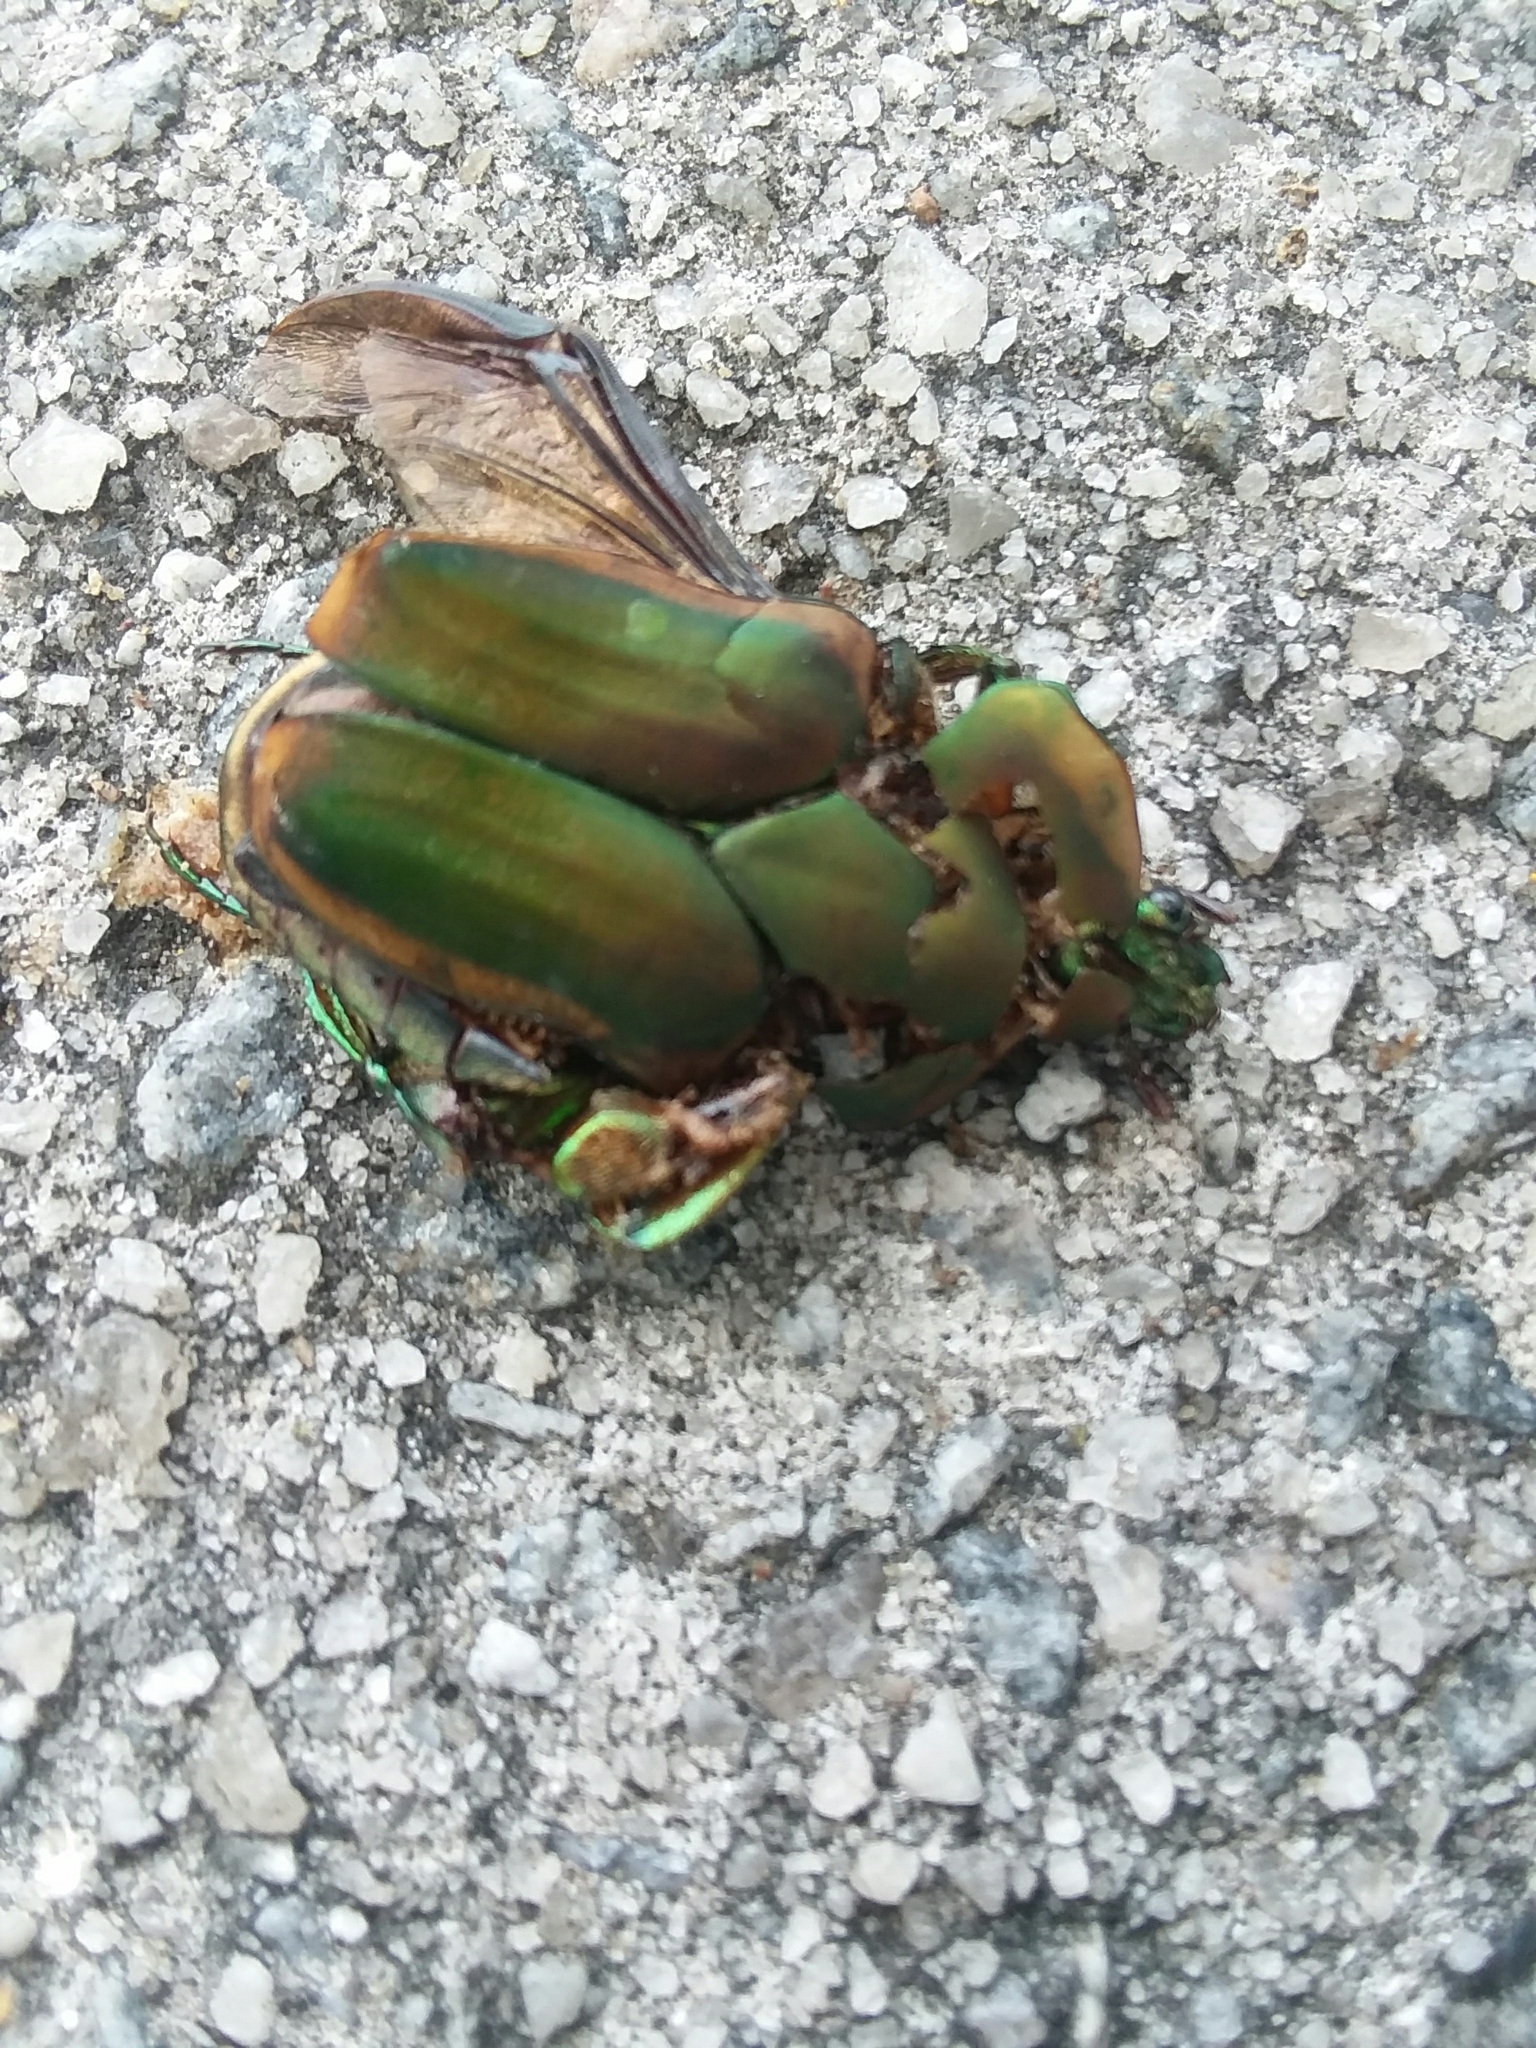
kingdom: Animalia
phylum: Arthropoda
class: Insecta
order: Coleoptera
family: Scarabaeidae
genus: Cotinis
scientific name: Cotinis nitida
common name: Common green june beetle
